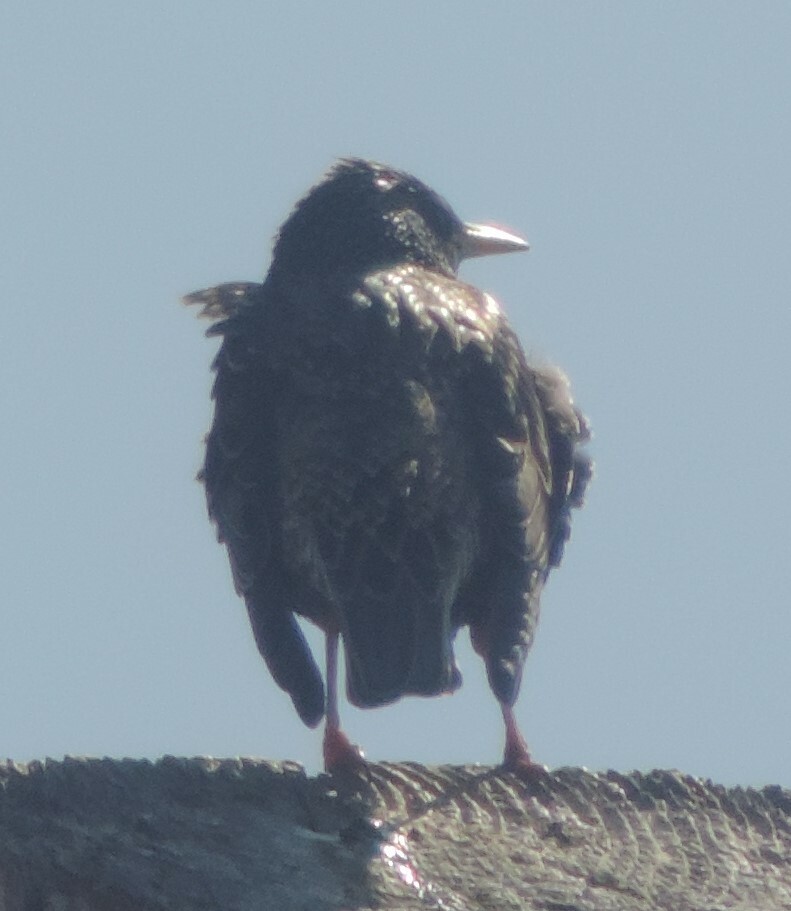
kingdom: Animalia
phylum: Chordata
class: Aves
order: Passeriformes
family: Sturnidae
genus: Sturnus
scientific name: Sturnus vulgaris
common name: Common starling
